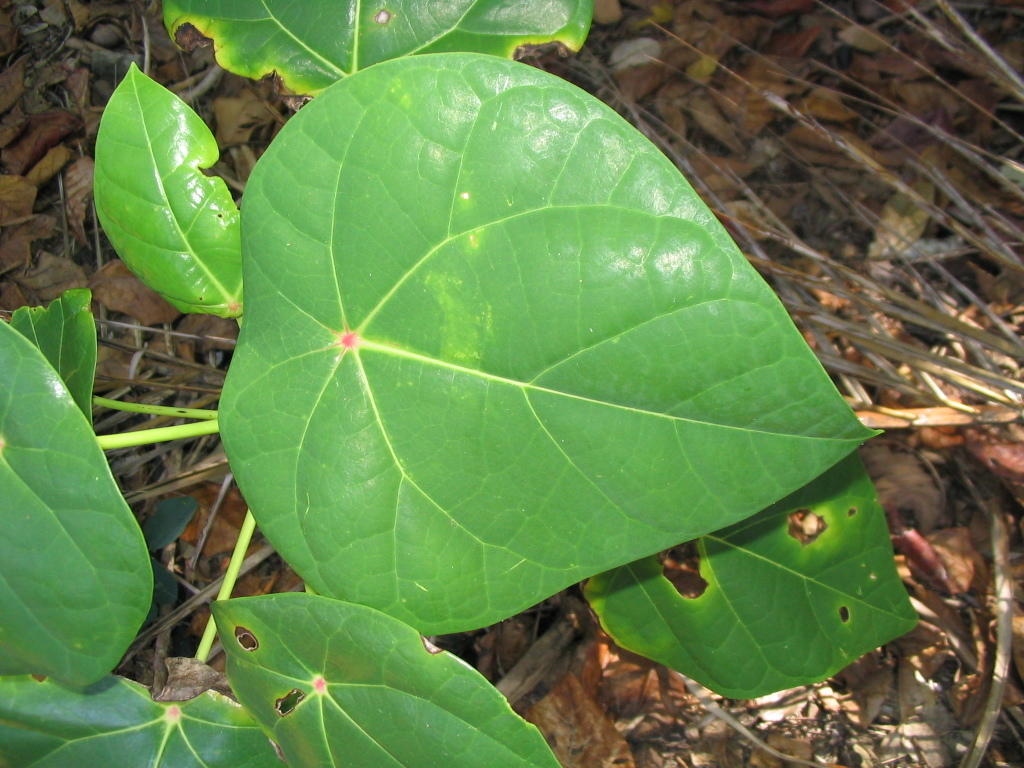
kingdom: Plantae
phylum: Tracheophyta
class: Magnoliopsida
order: Laurales
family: Hernandiaceae
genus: Hernandia
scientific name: Hernandia nymphaeifolia
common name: Sea hearse
